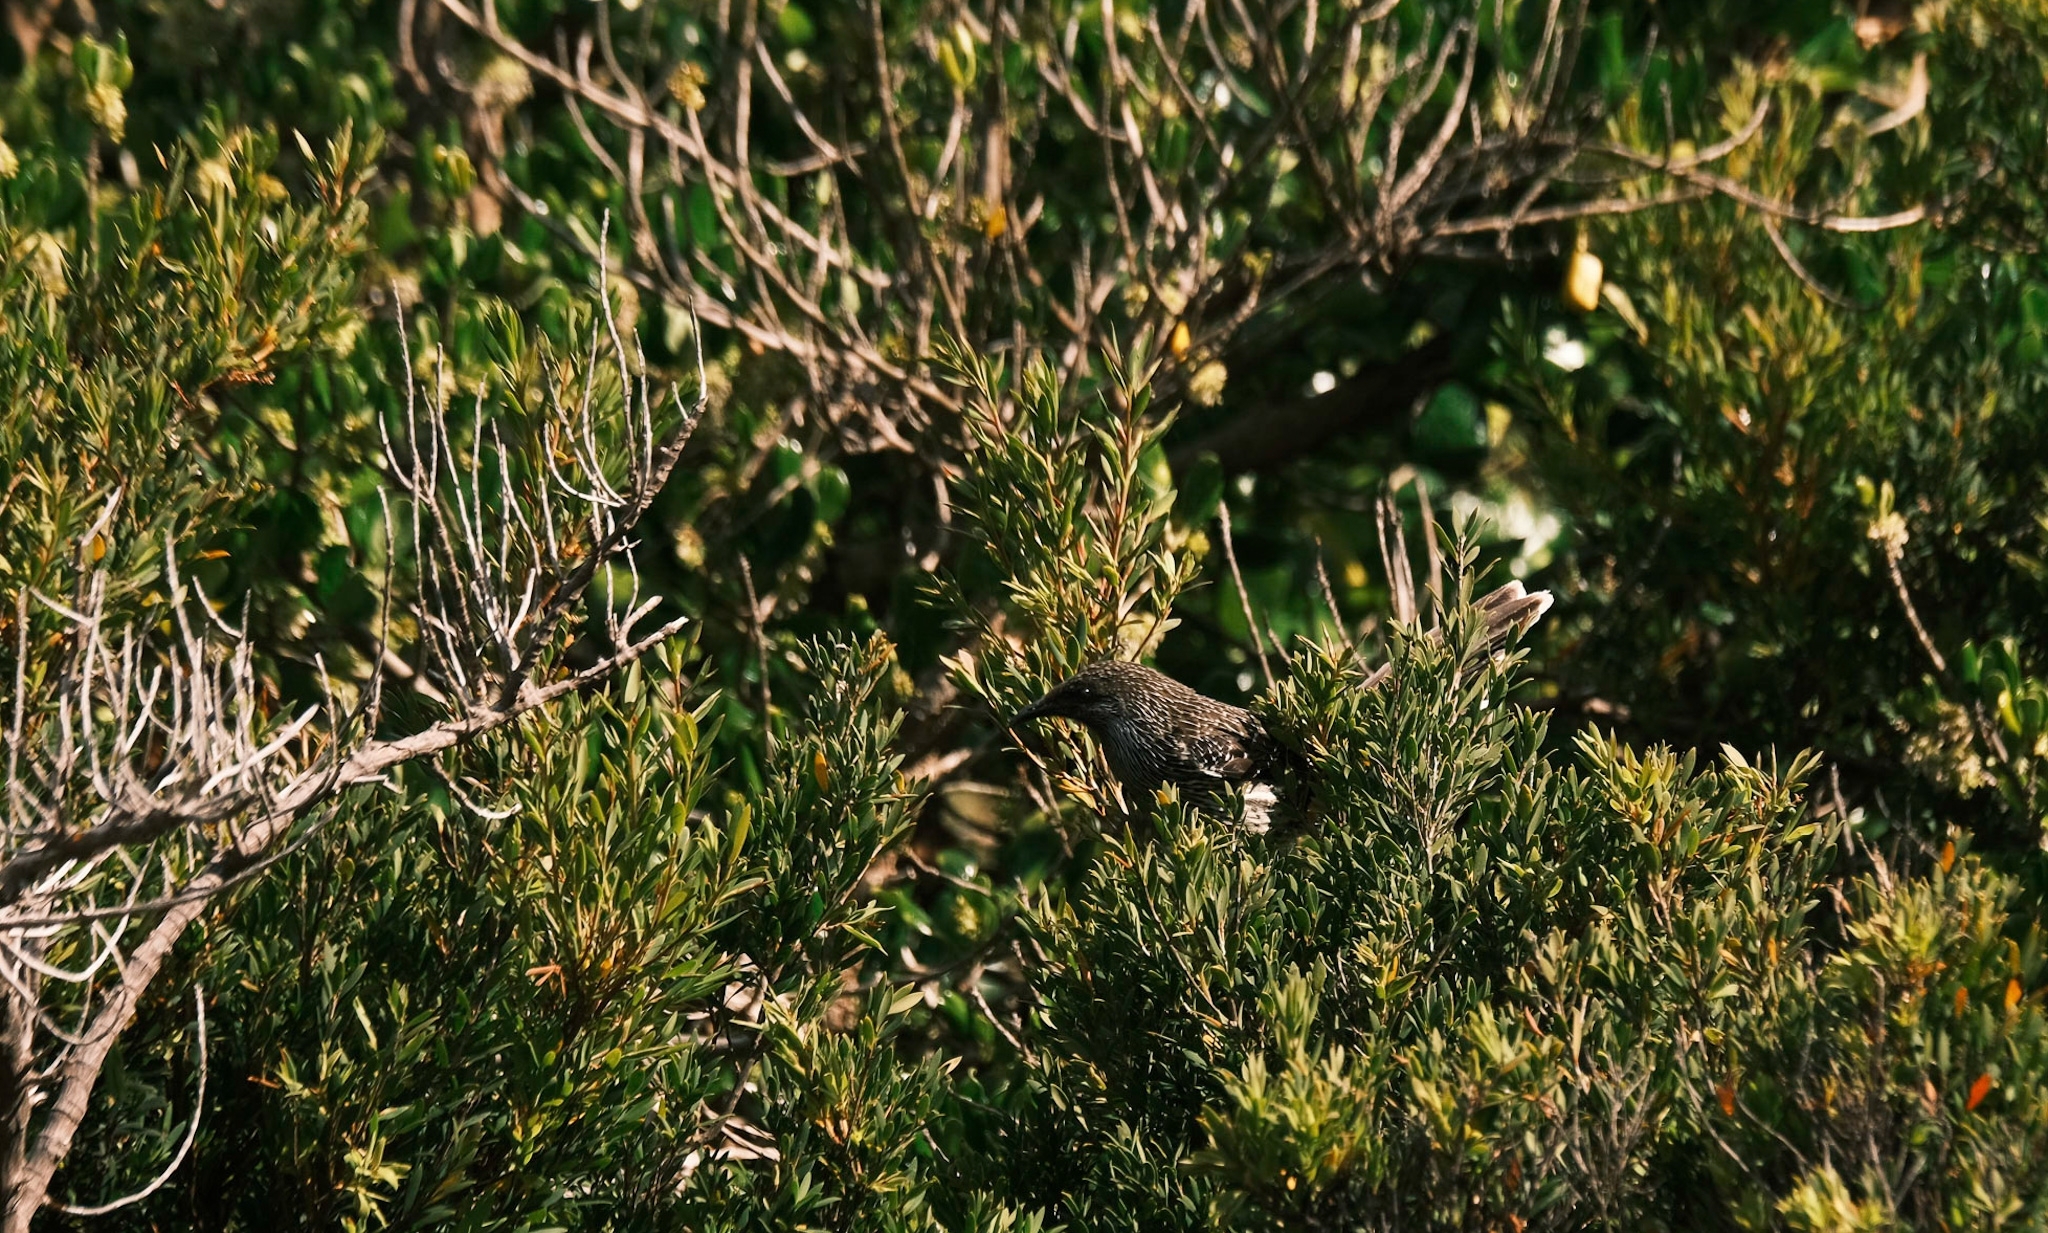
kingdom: Animalia
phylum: Chordata
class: Aves
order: Passeriformes
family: Meliphagidae
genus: Anthochaera
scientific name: Anthochaera chrysoptera
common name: Little wattlebird
